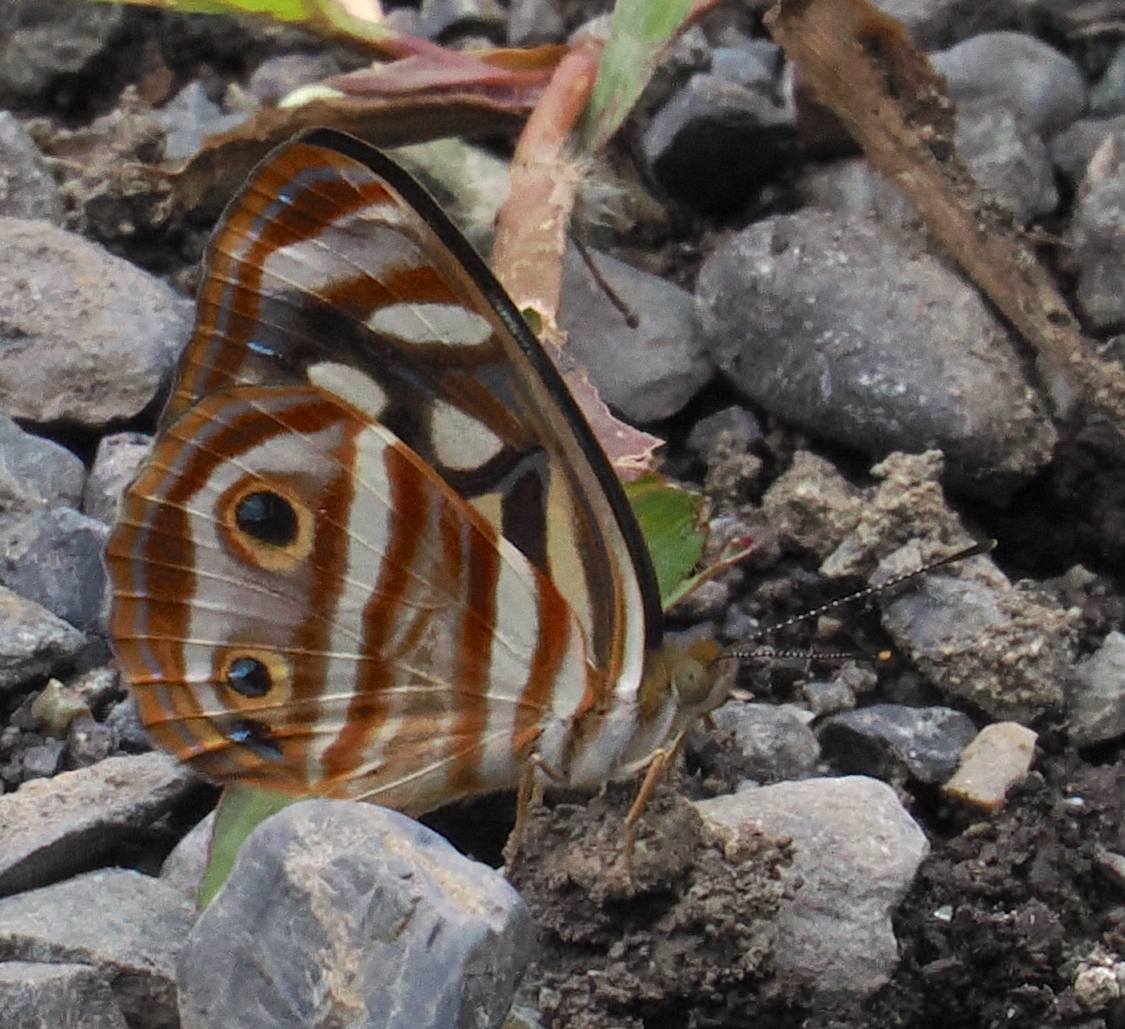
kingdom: Animalia
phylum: Arthropoda
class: Insecta
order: Lepidoptera
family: Nymphalidae
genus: Dynamine
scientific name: Dynamine mylitta
